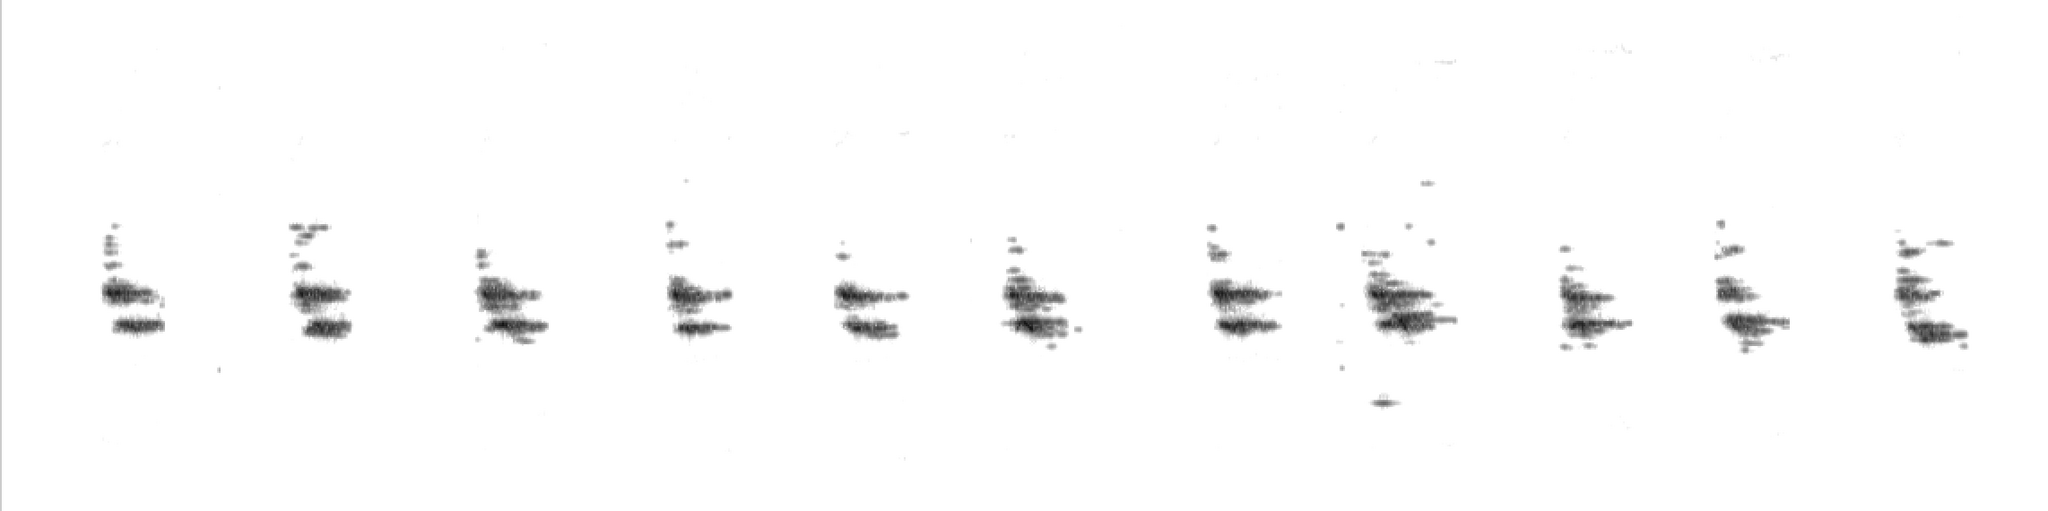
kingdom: Animalia
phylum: Chordata
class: Mammalia
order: Rodentia
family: Sciuridae
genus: Glaucomys
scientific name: Glaucomys volans
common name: Southern flying squirrel
